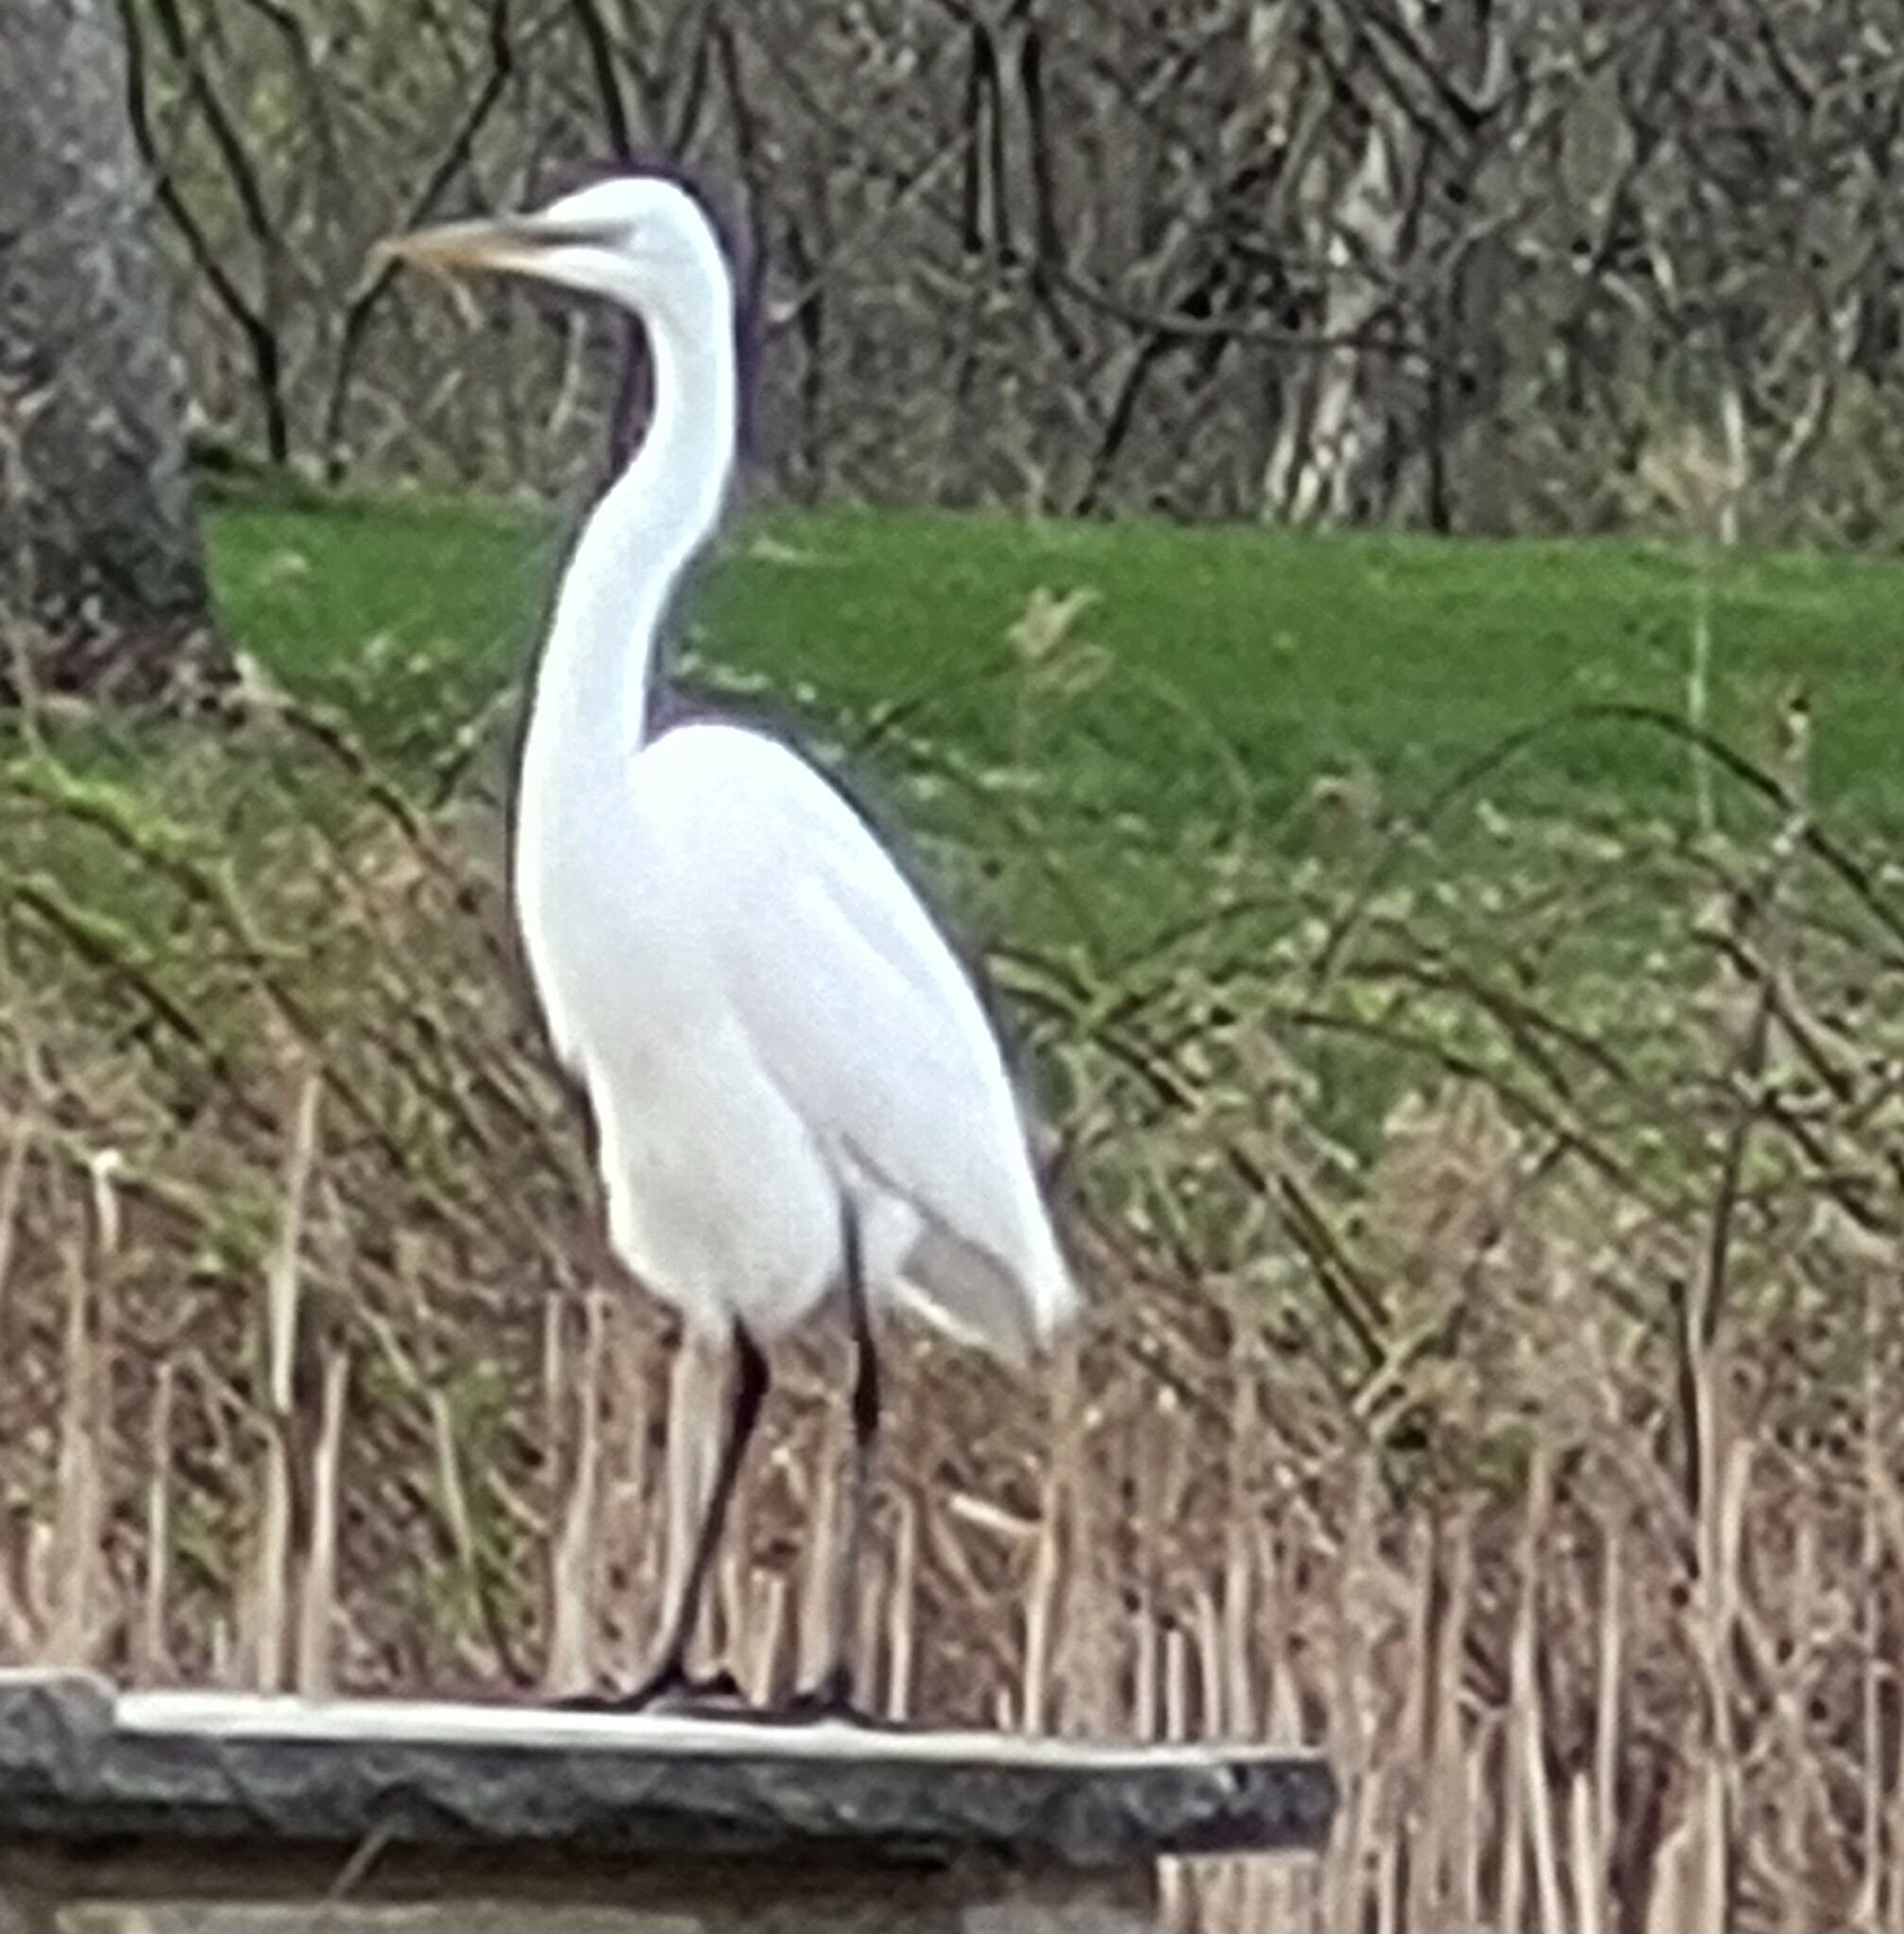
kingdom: Animalia
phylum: Chordata
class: Aves
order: Pelecaniformes
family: Ardeidae
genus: Ardea
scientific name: Ardea alba
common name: Great egret
